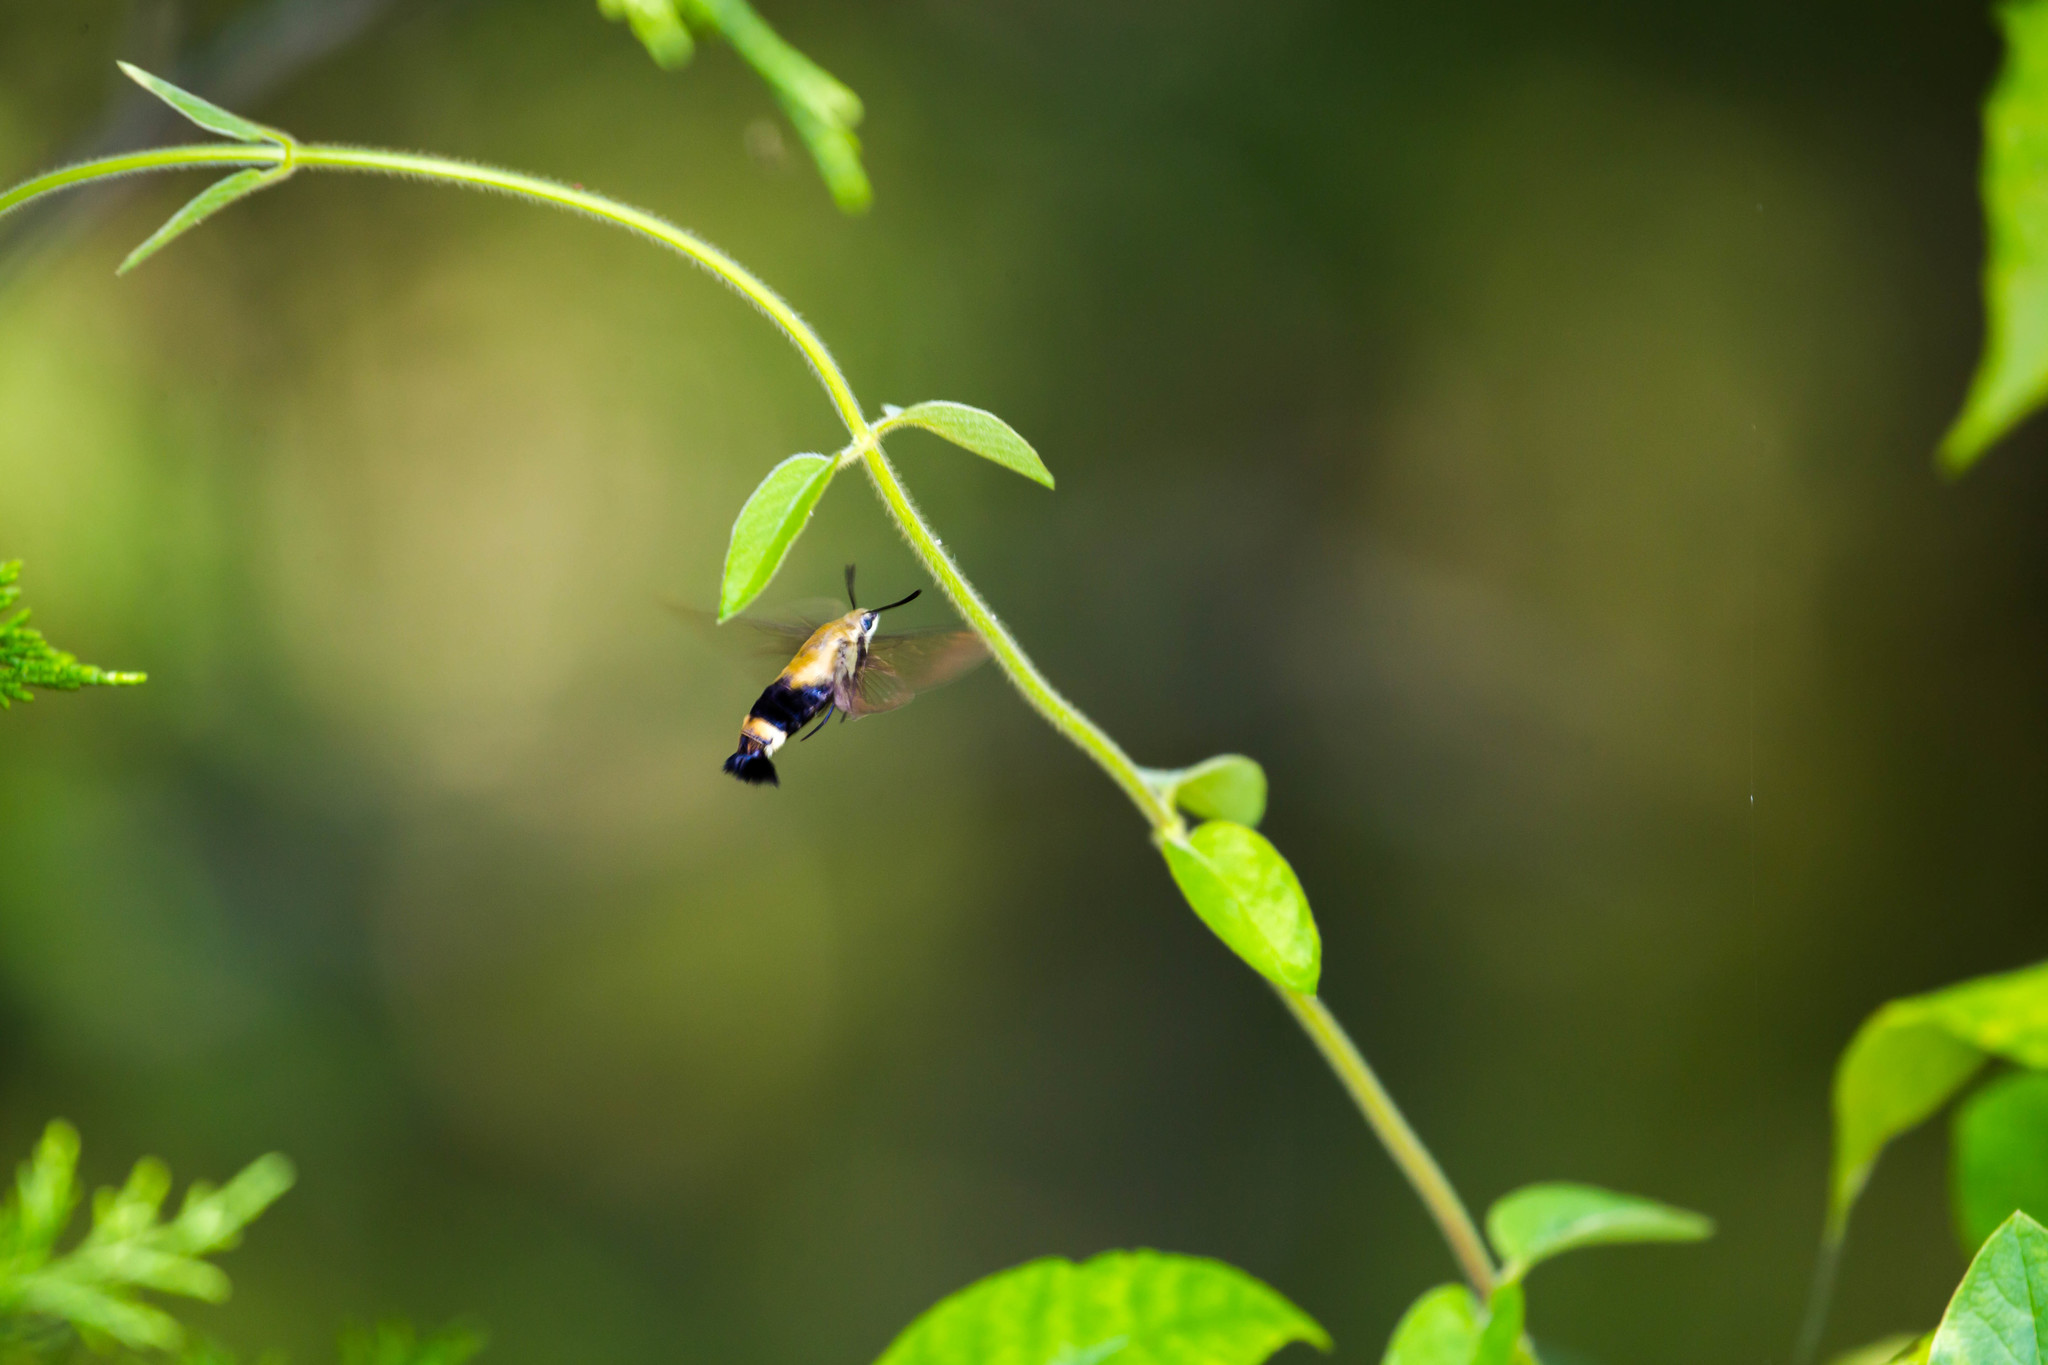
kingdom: Animalia
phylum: Arthropoda
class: Insecta
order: Lepidoptera
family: Sphingidae
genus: Hemaris
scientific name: Hemaris diffinis
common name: Bumblebee moth
